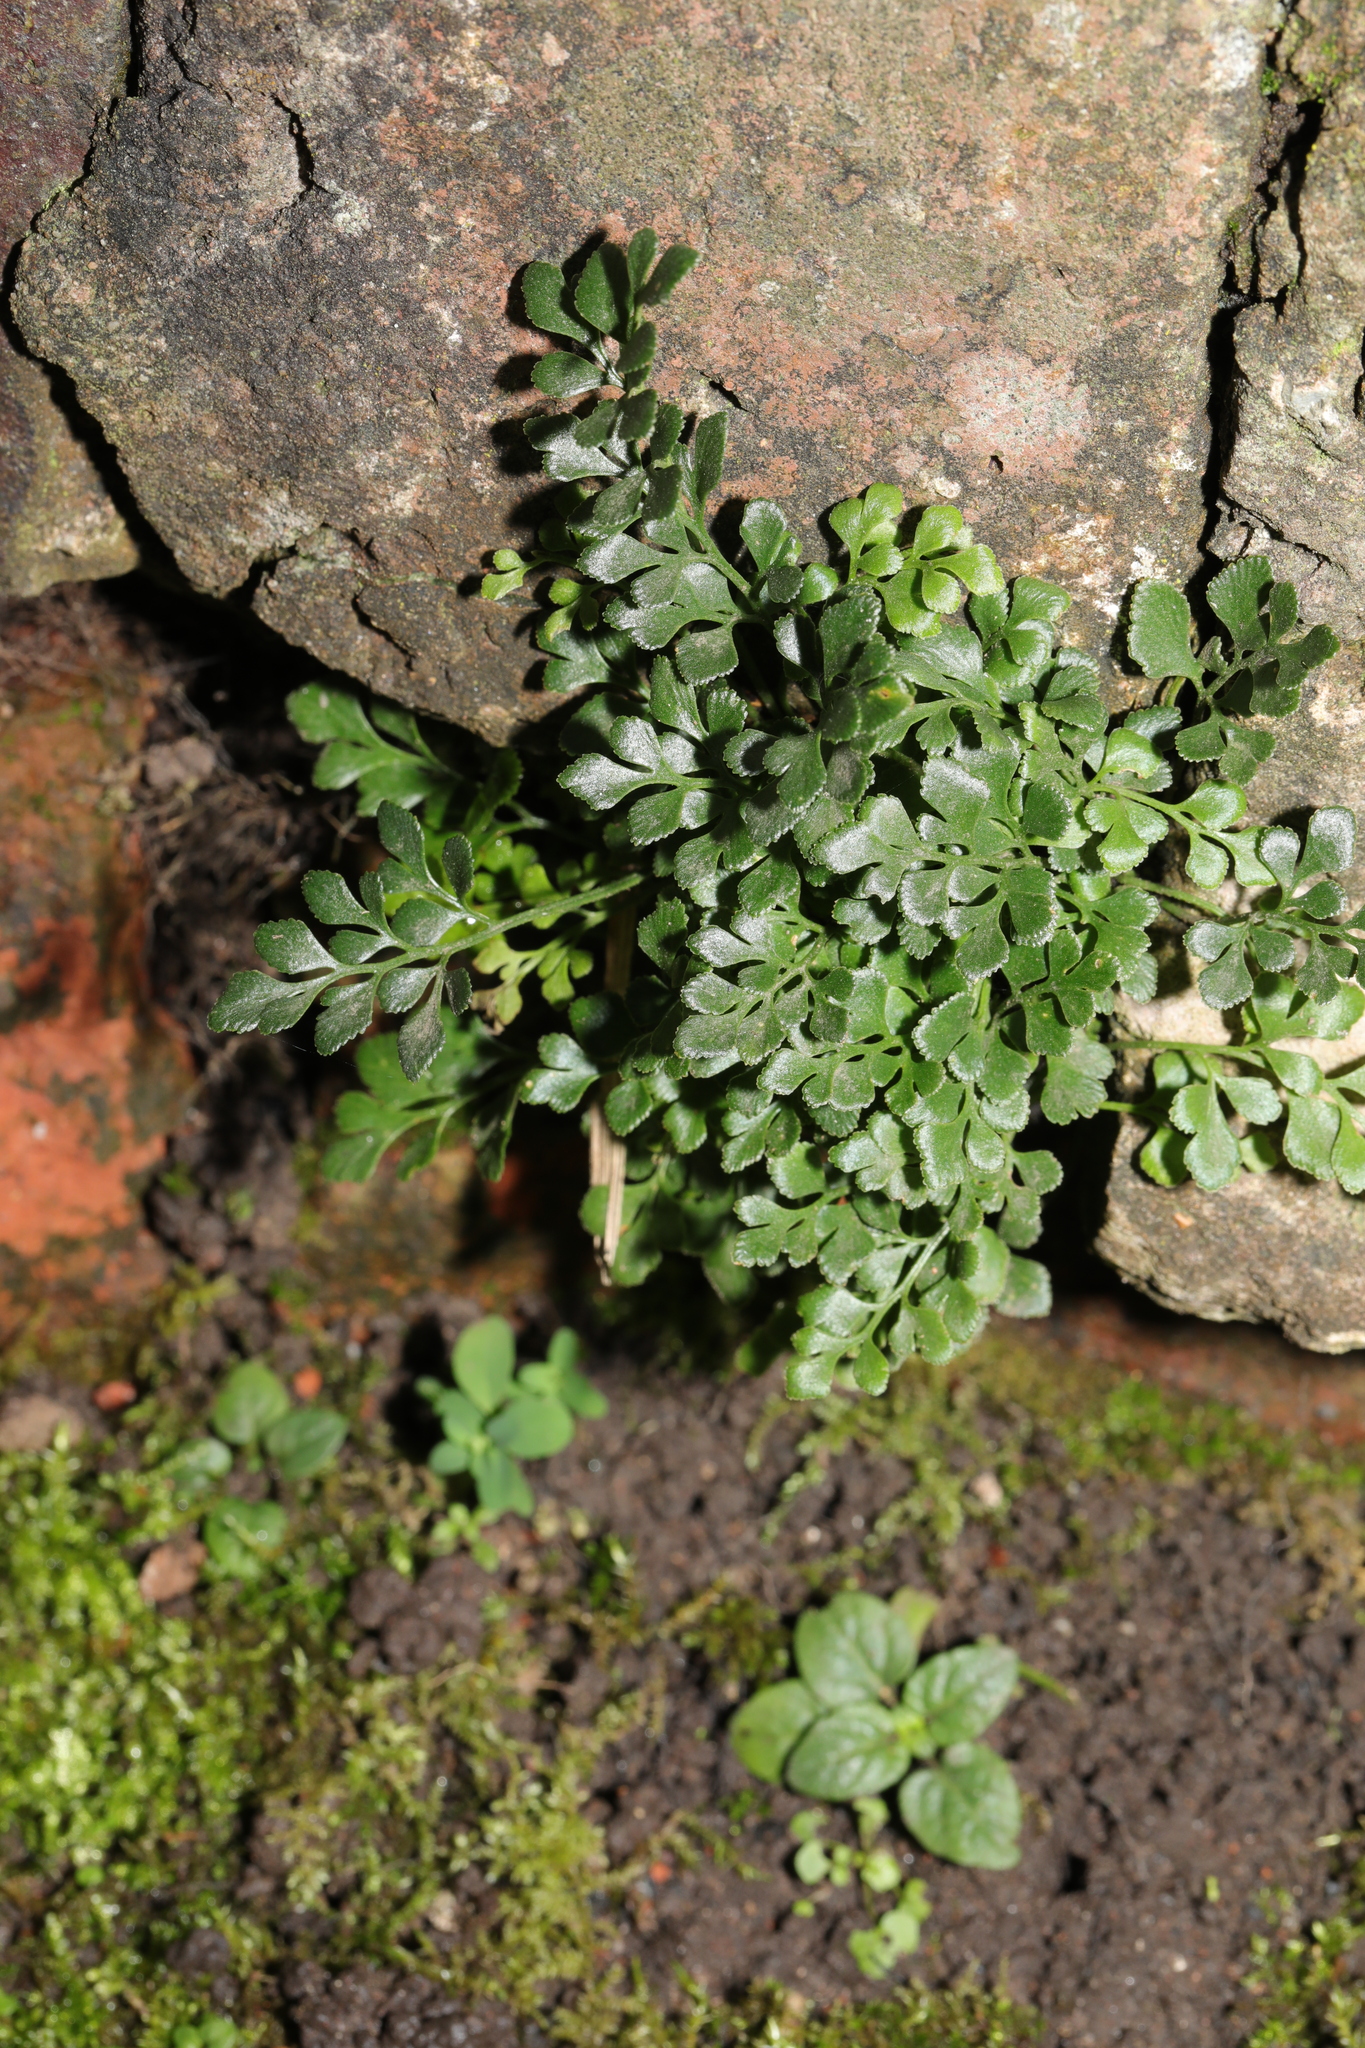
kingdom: Plantae
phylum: Tracheophyta
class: Polypodiopsida
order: Polypodiales
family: Aspleniaceae
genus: Asplenium
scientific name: Asplenium ruta-muraria
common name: Wall-rue
